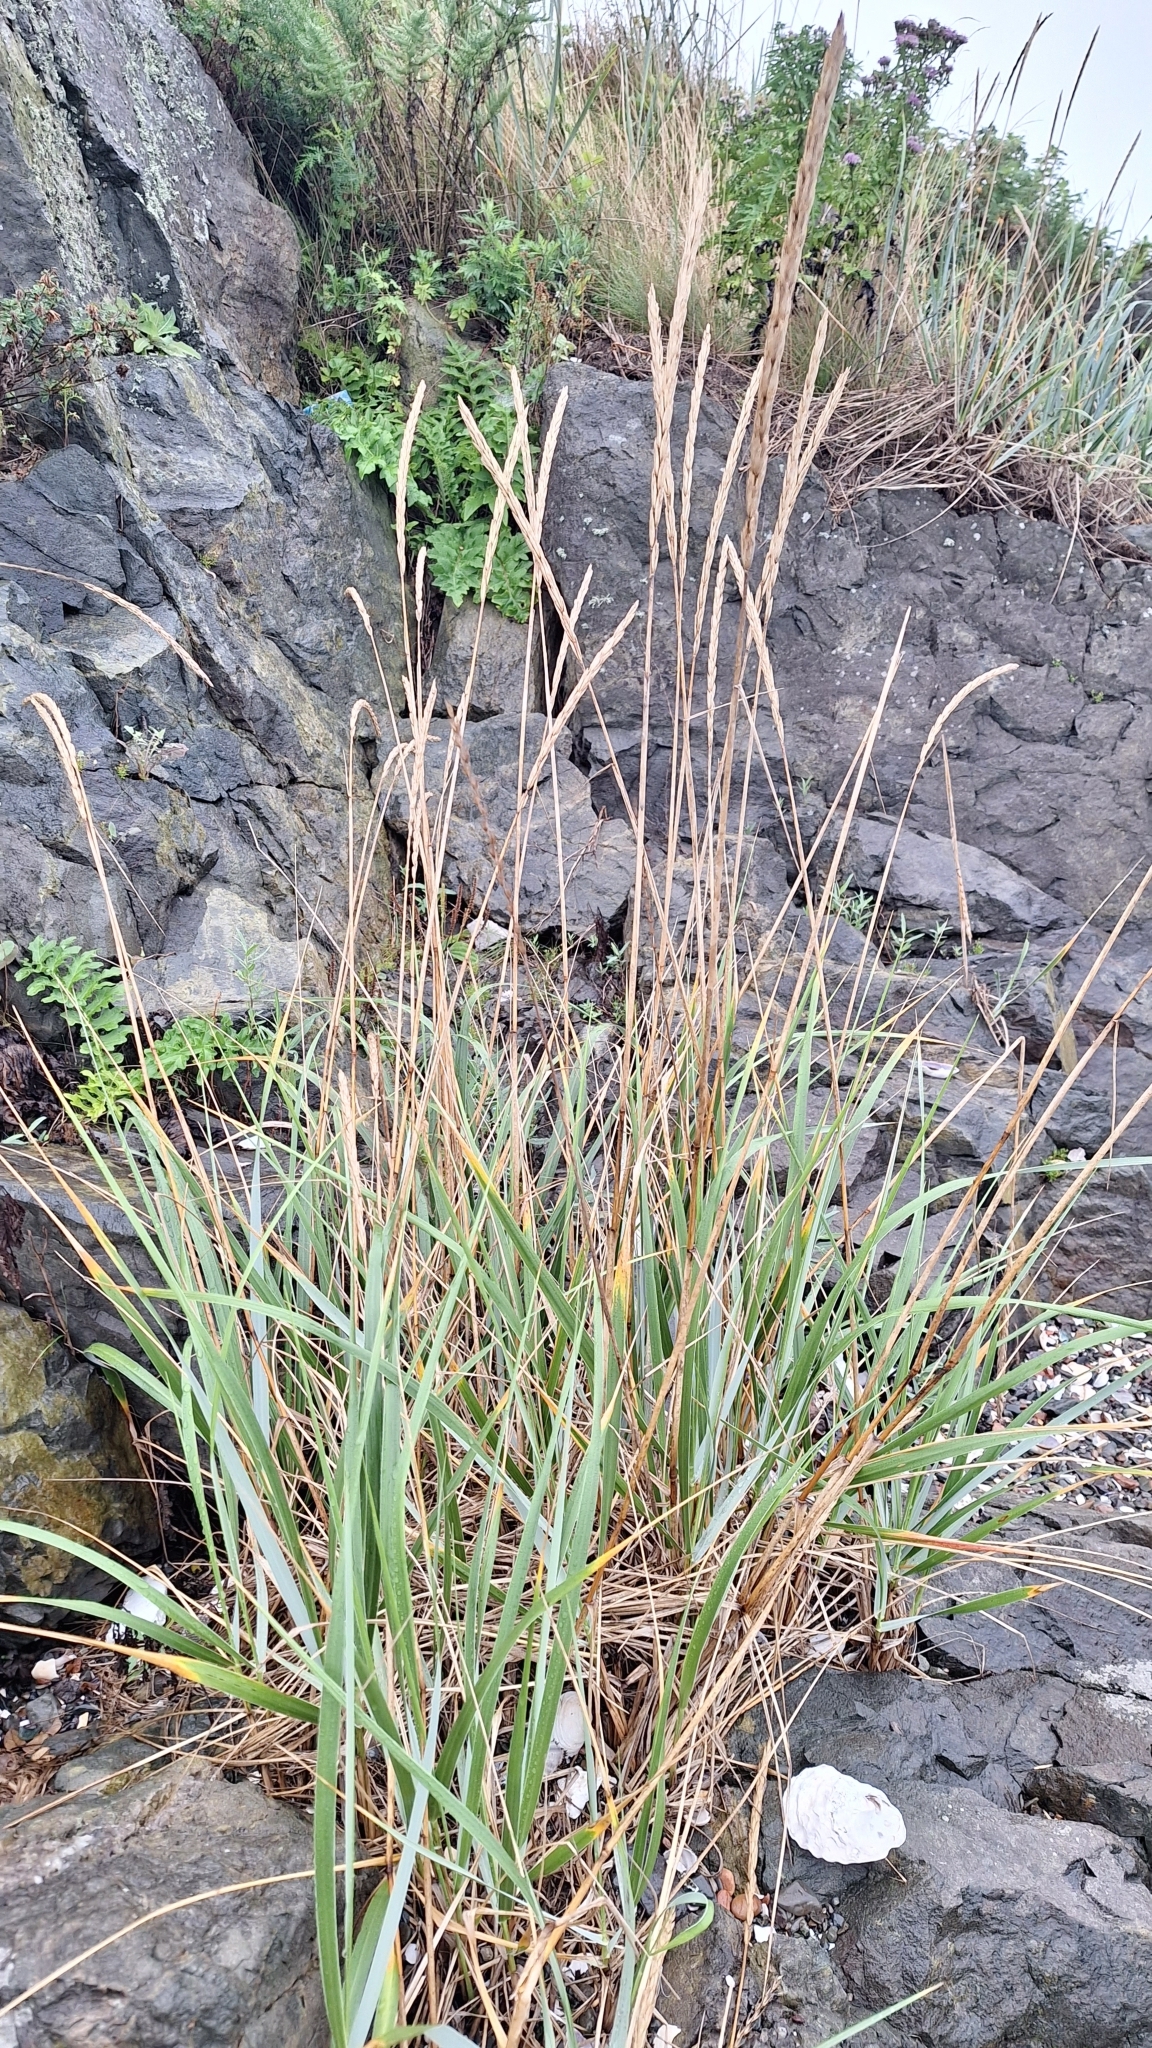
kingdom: Plantae
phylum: Tracheophyta
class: Liliopsida
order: Poales
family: Poaceae
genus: Leymus
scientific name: Leymus mollis
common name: American dune grass
